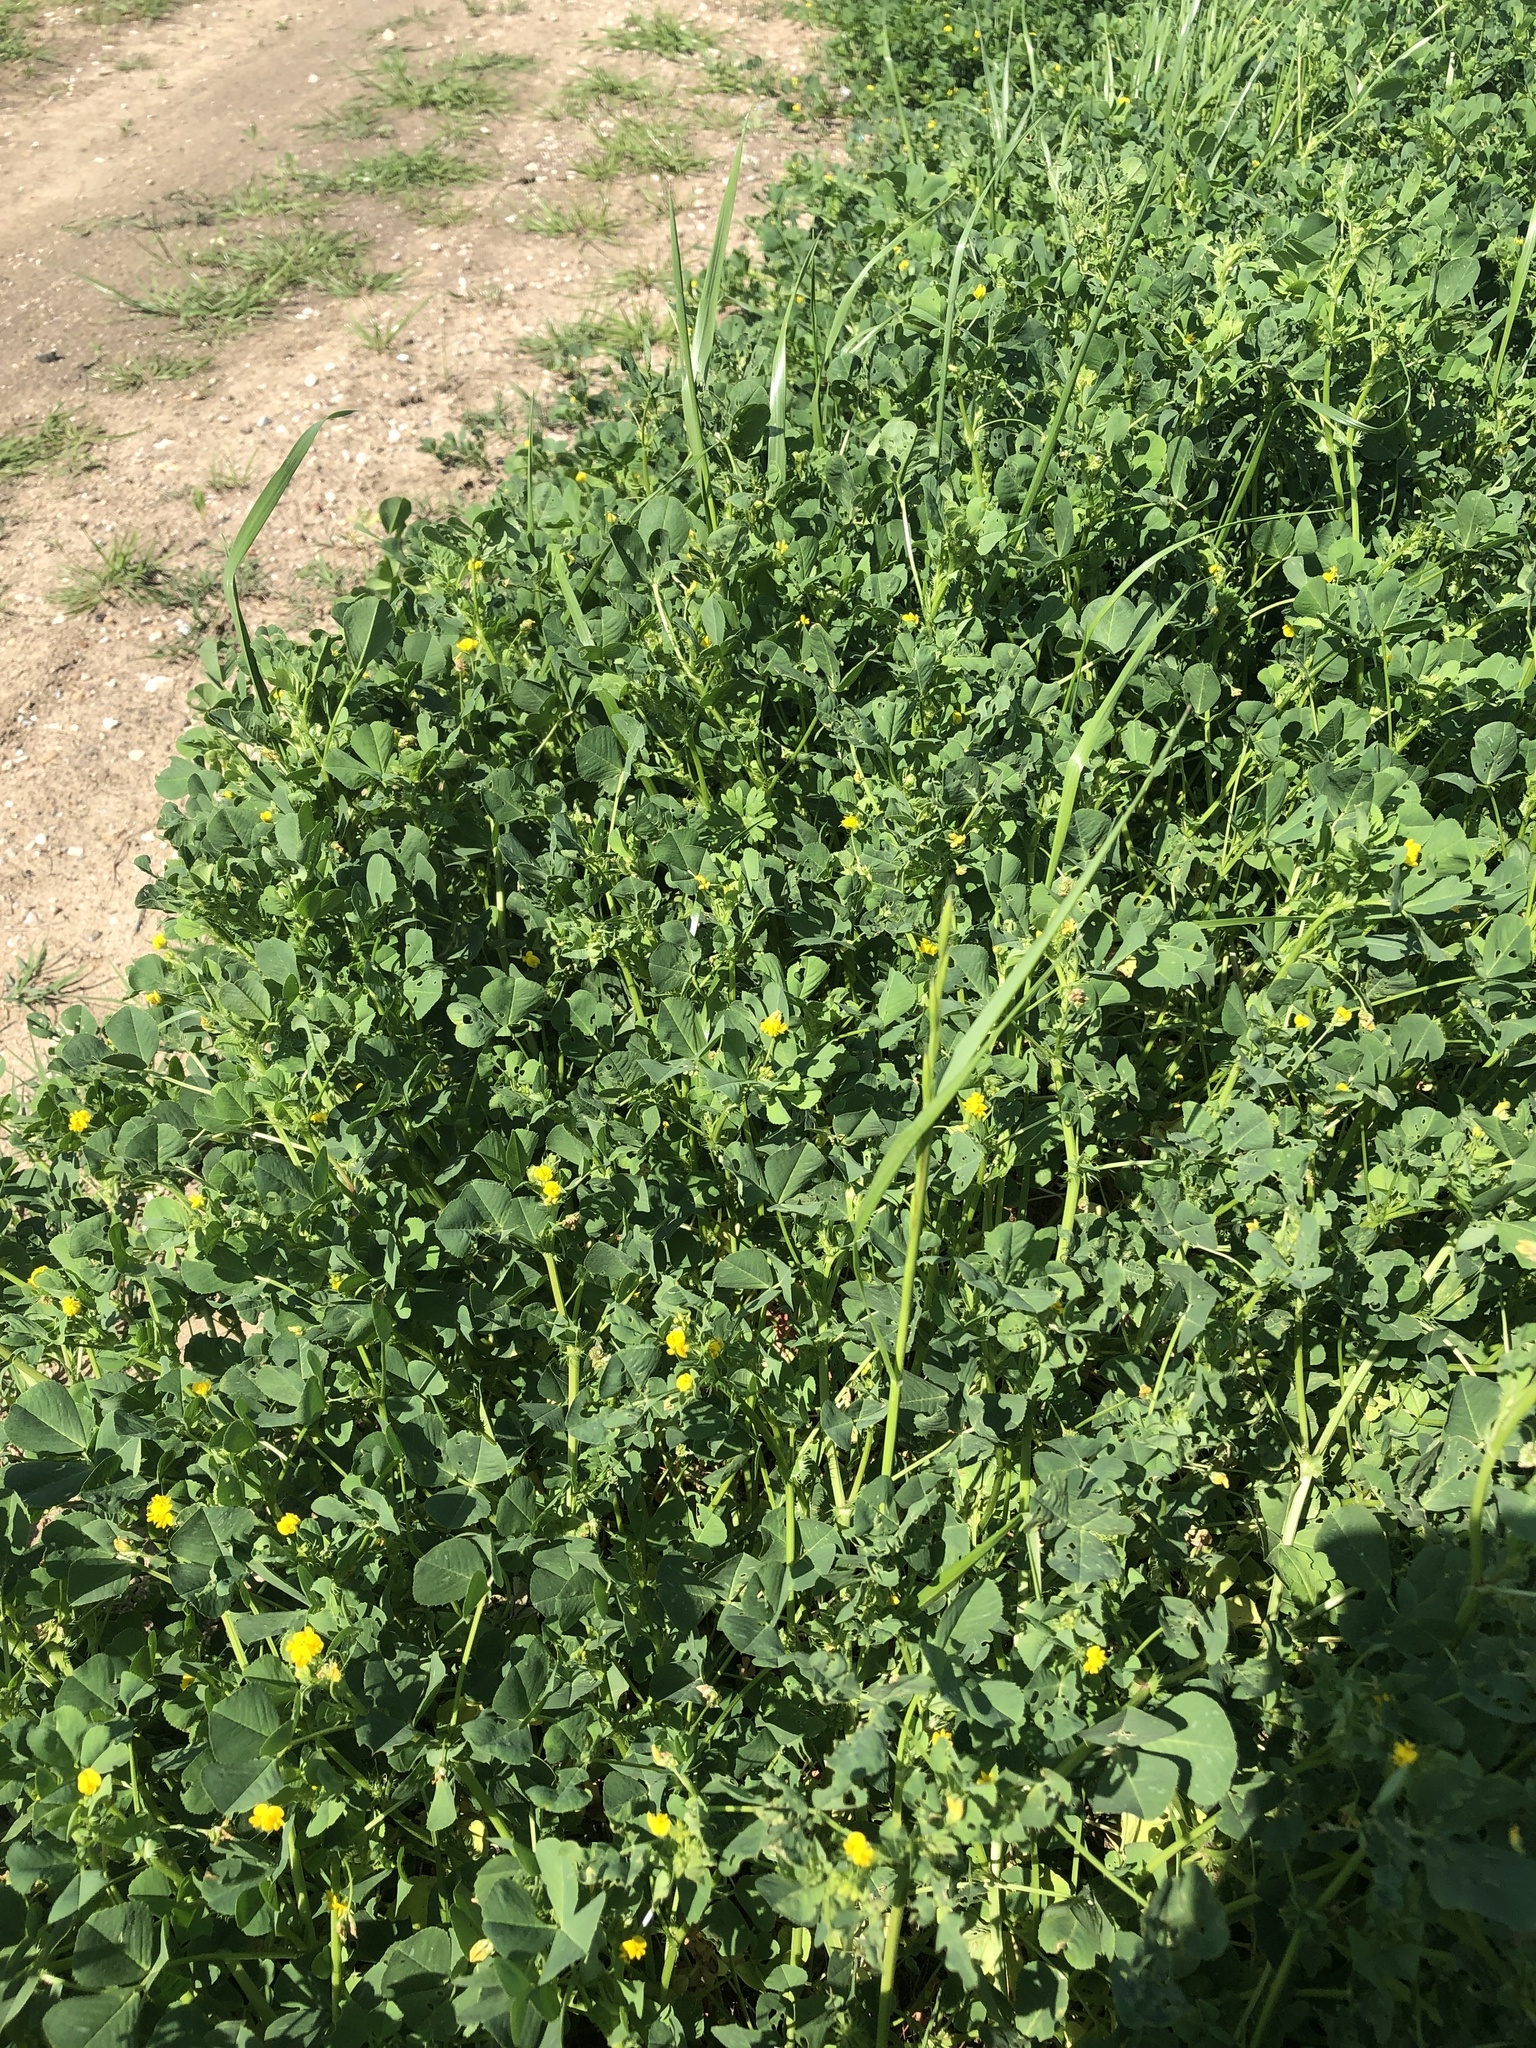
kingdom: Plantae
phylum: Tracheophyta
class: Magnoliopsida
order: Fabales
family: Fabaceae
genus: Medicago
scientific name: Medicago polymorpha
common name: Burclover
